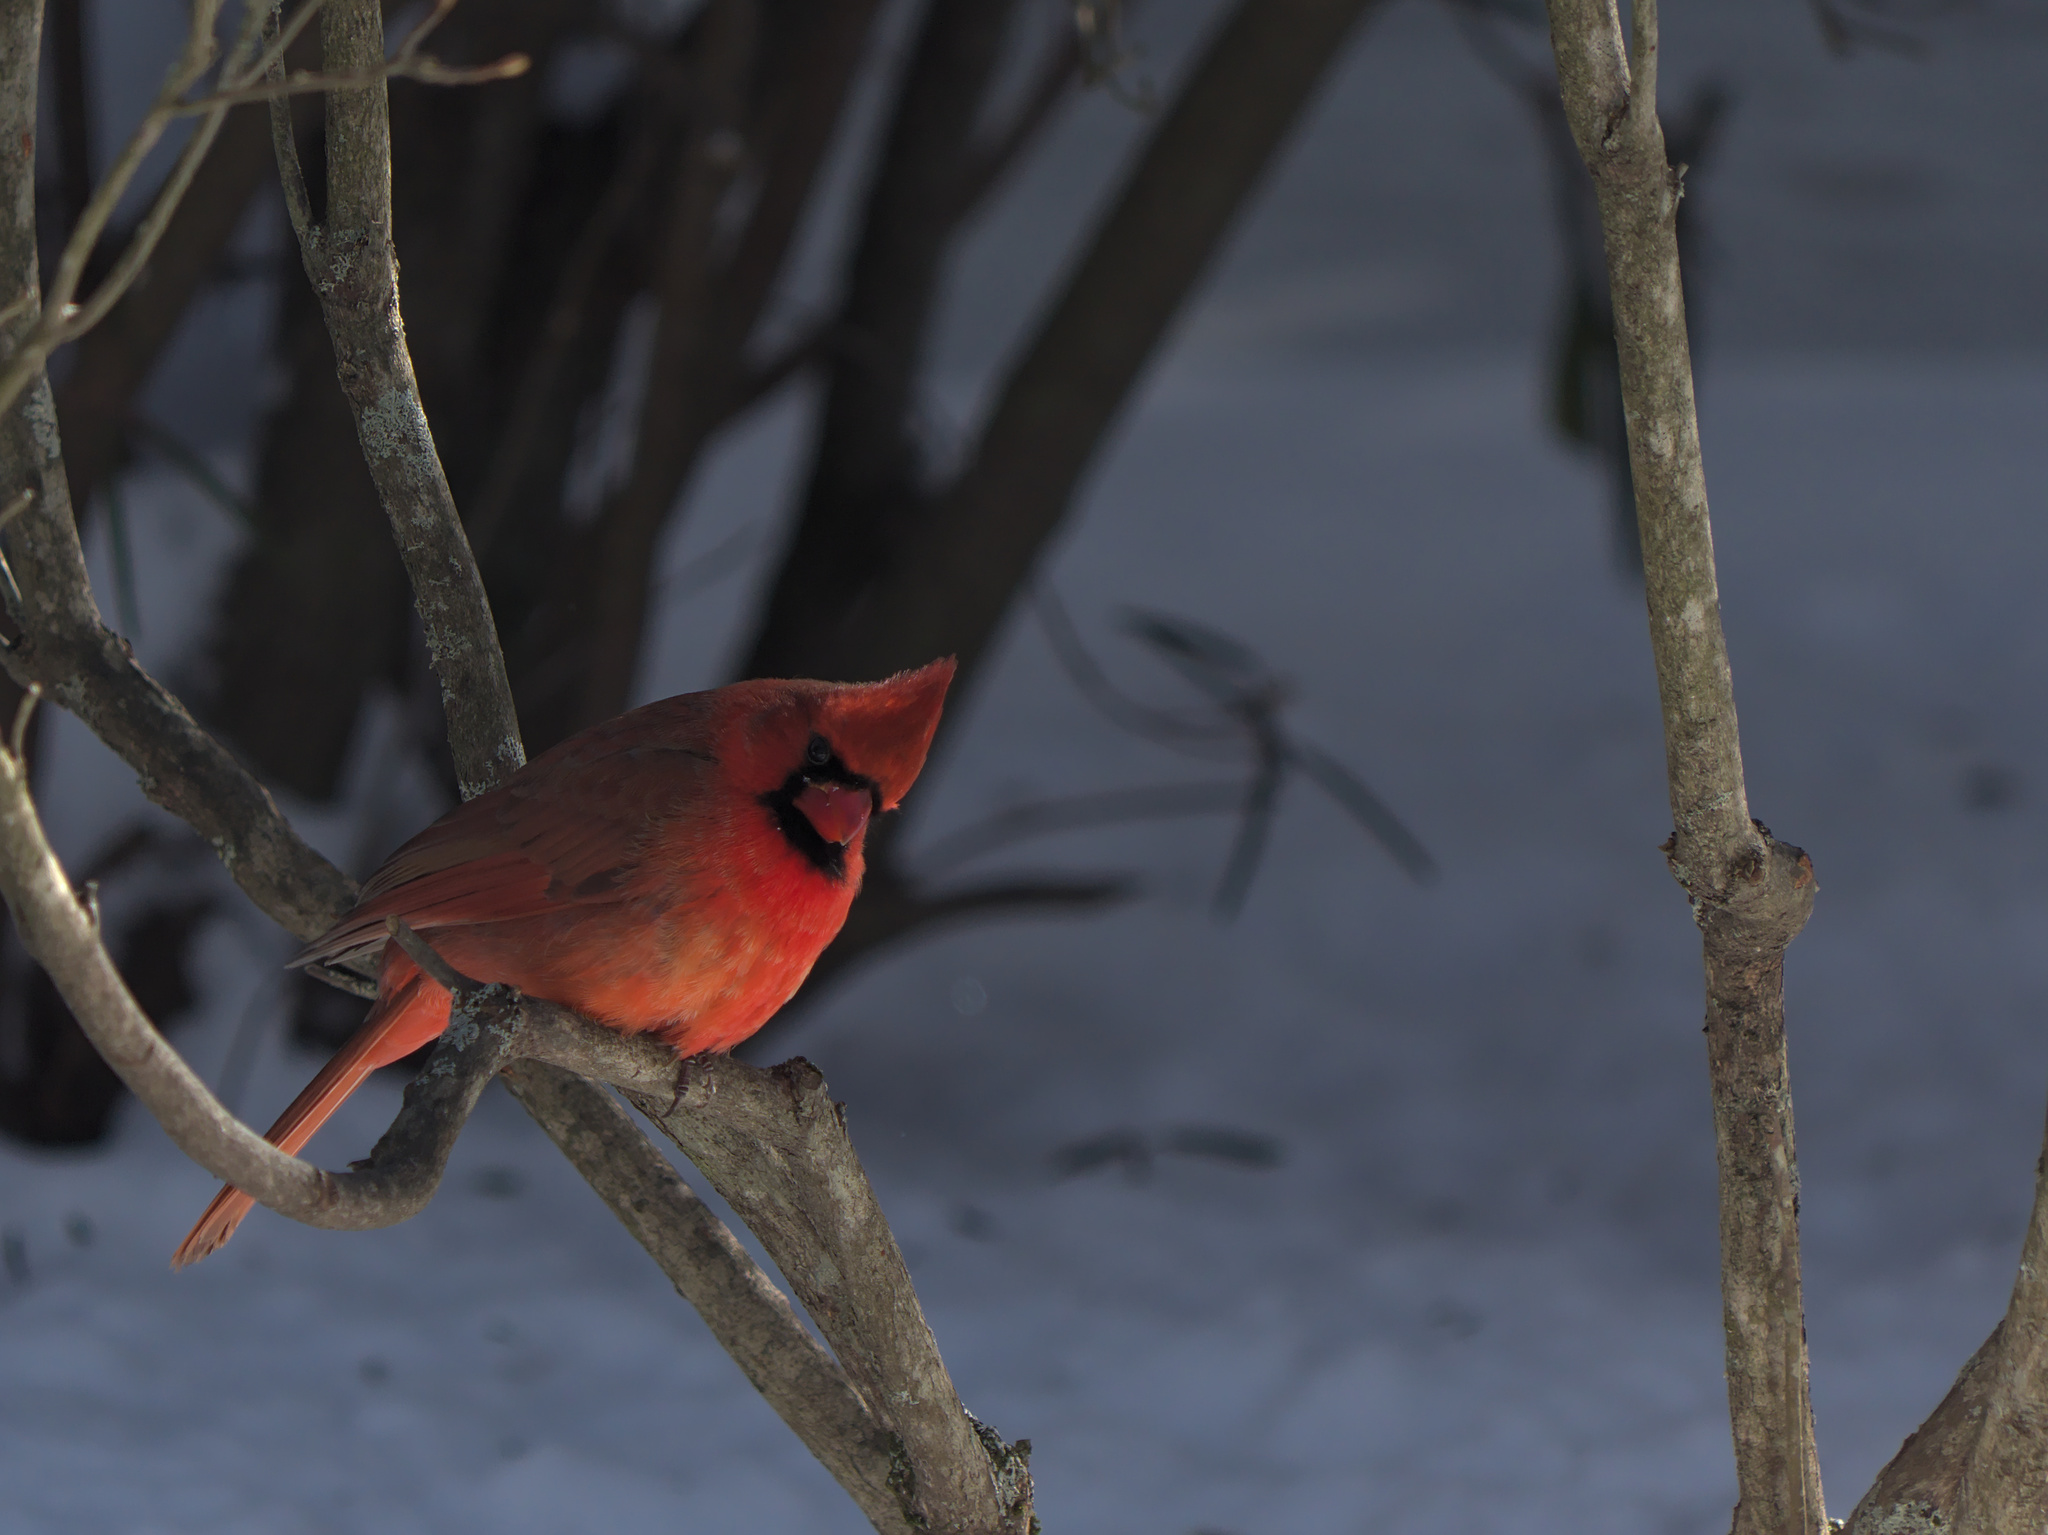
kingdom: Animalia
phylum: Chordata
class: Aves
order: Passeriformes
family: Cardinalidae
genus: Cardinalis
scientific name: Cardinalis cardinalis
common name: Northern cardinal
